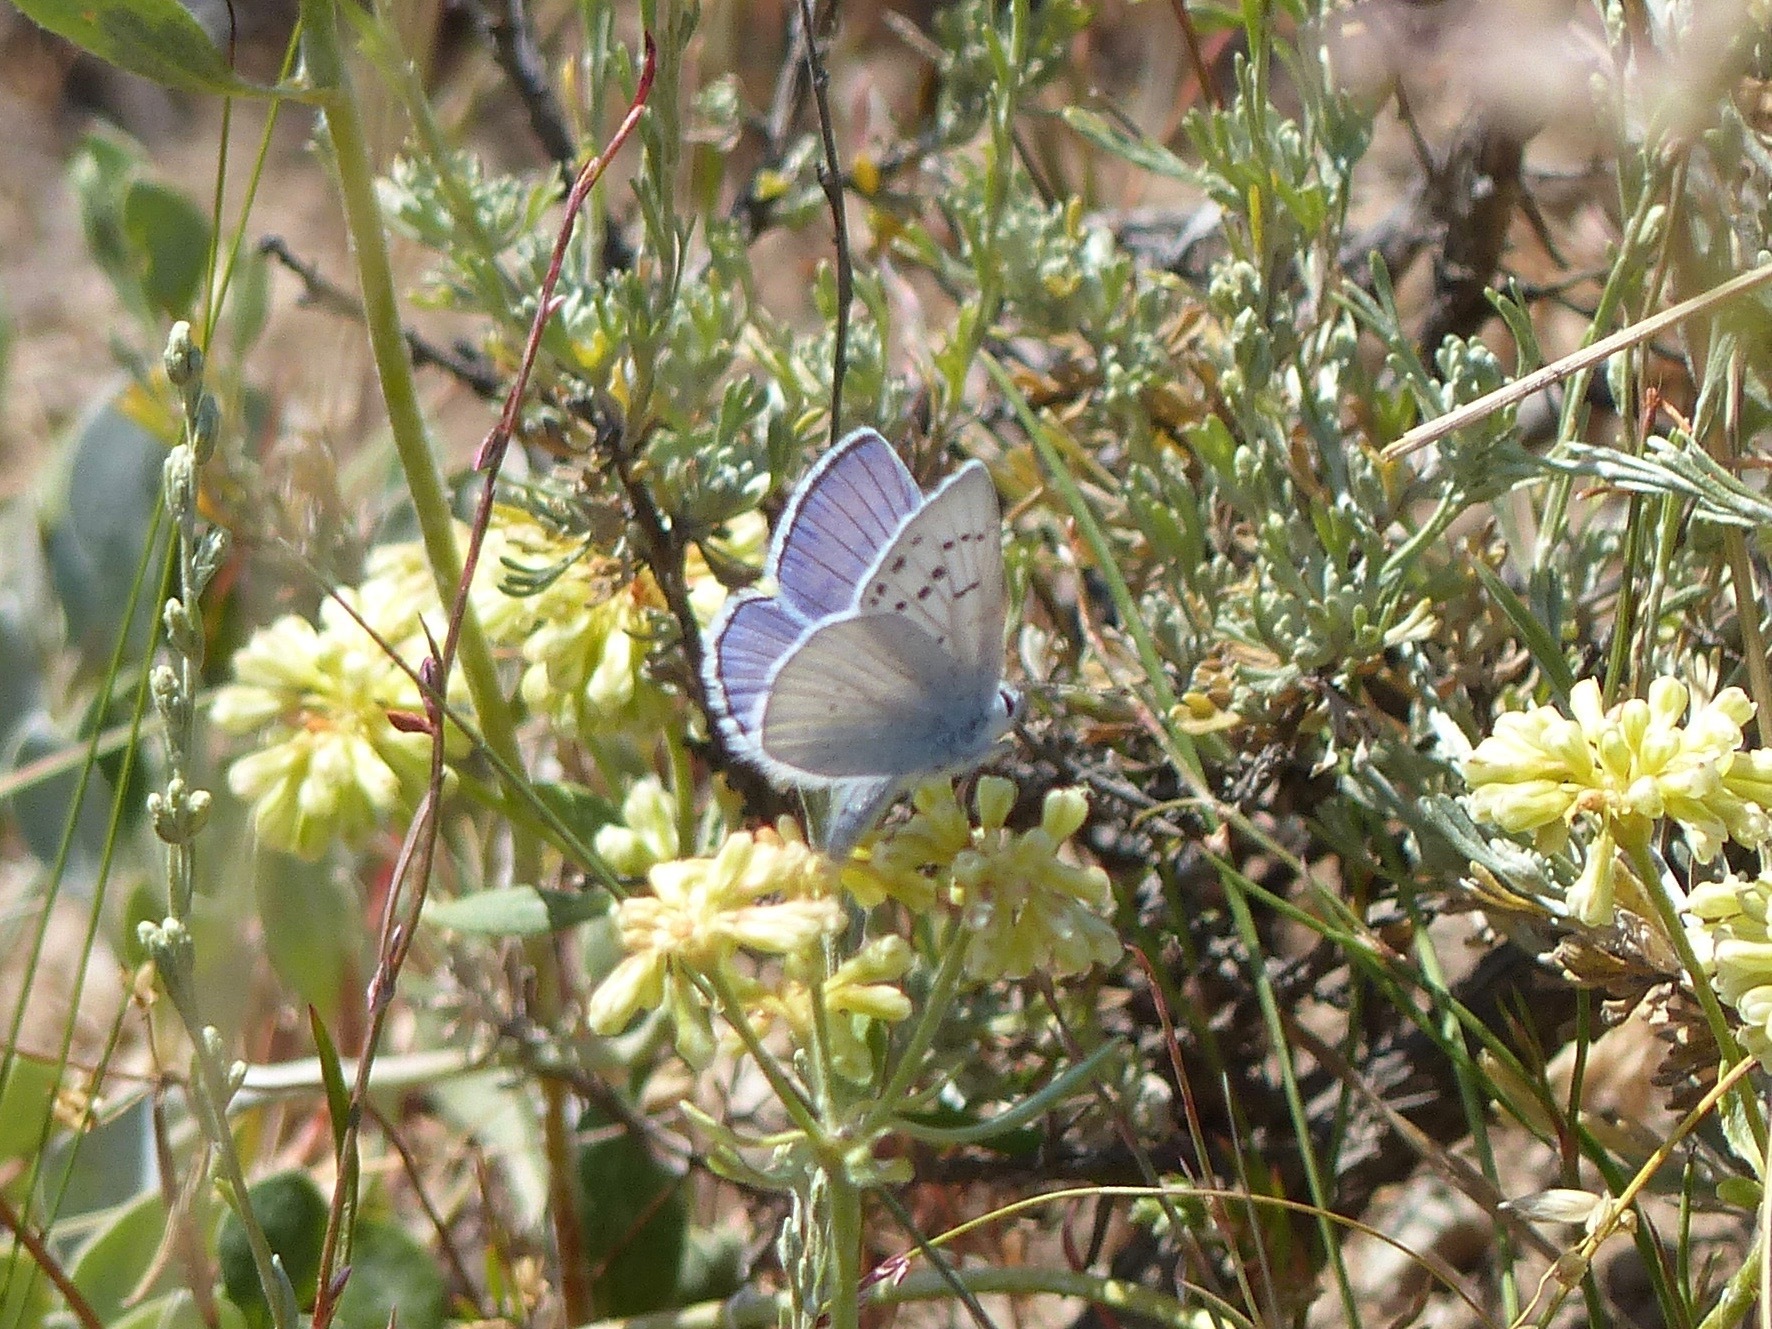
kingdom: Animalia
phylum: Arthropoda
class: Insecta
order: Lepidoptera
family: Lycaenidae
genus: Tharsalea
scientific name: Tharsalea heteronea
